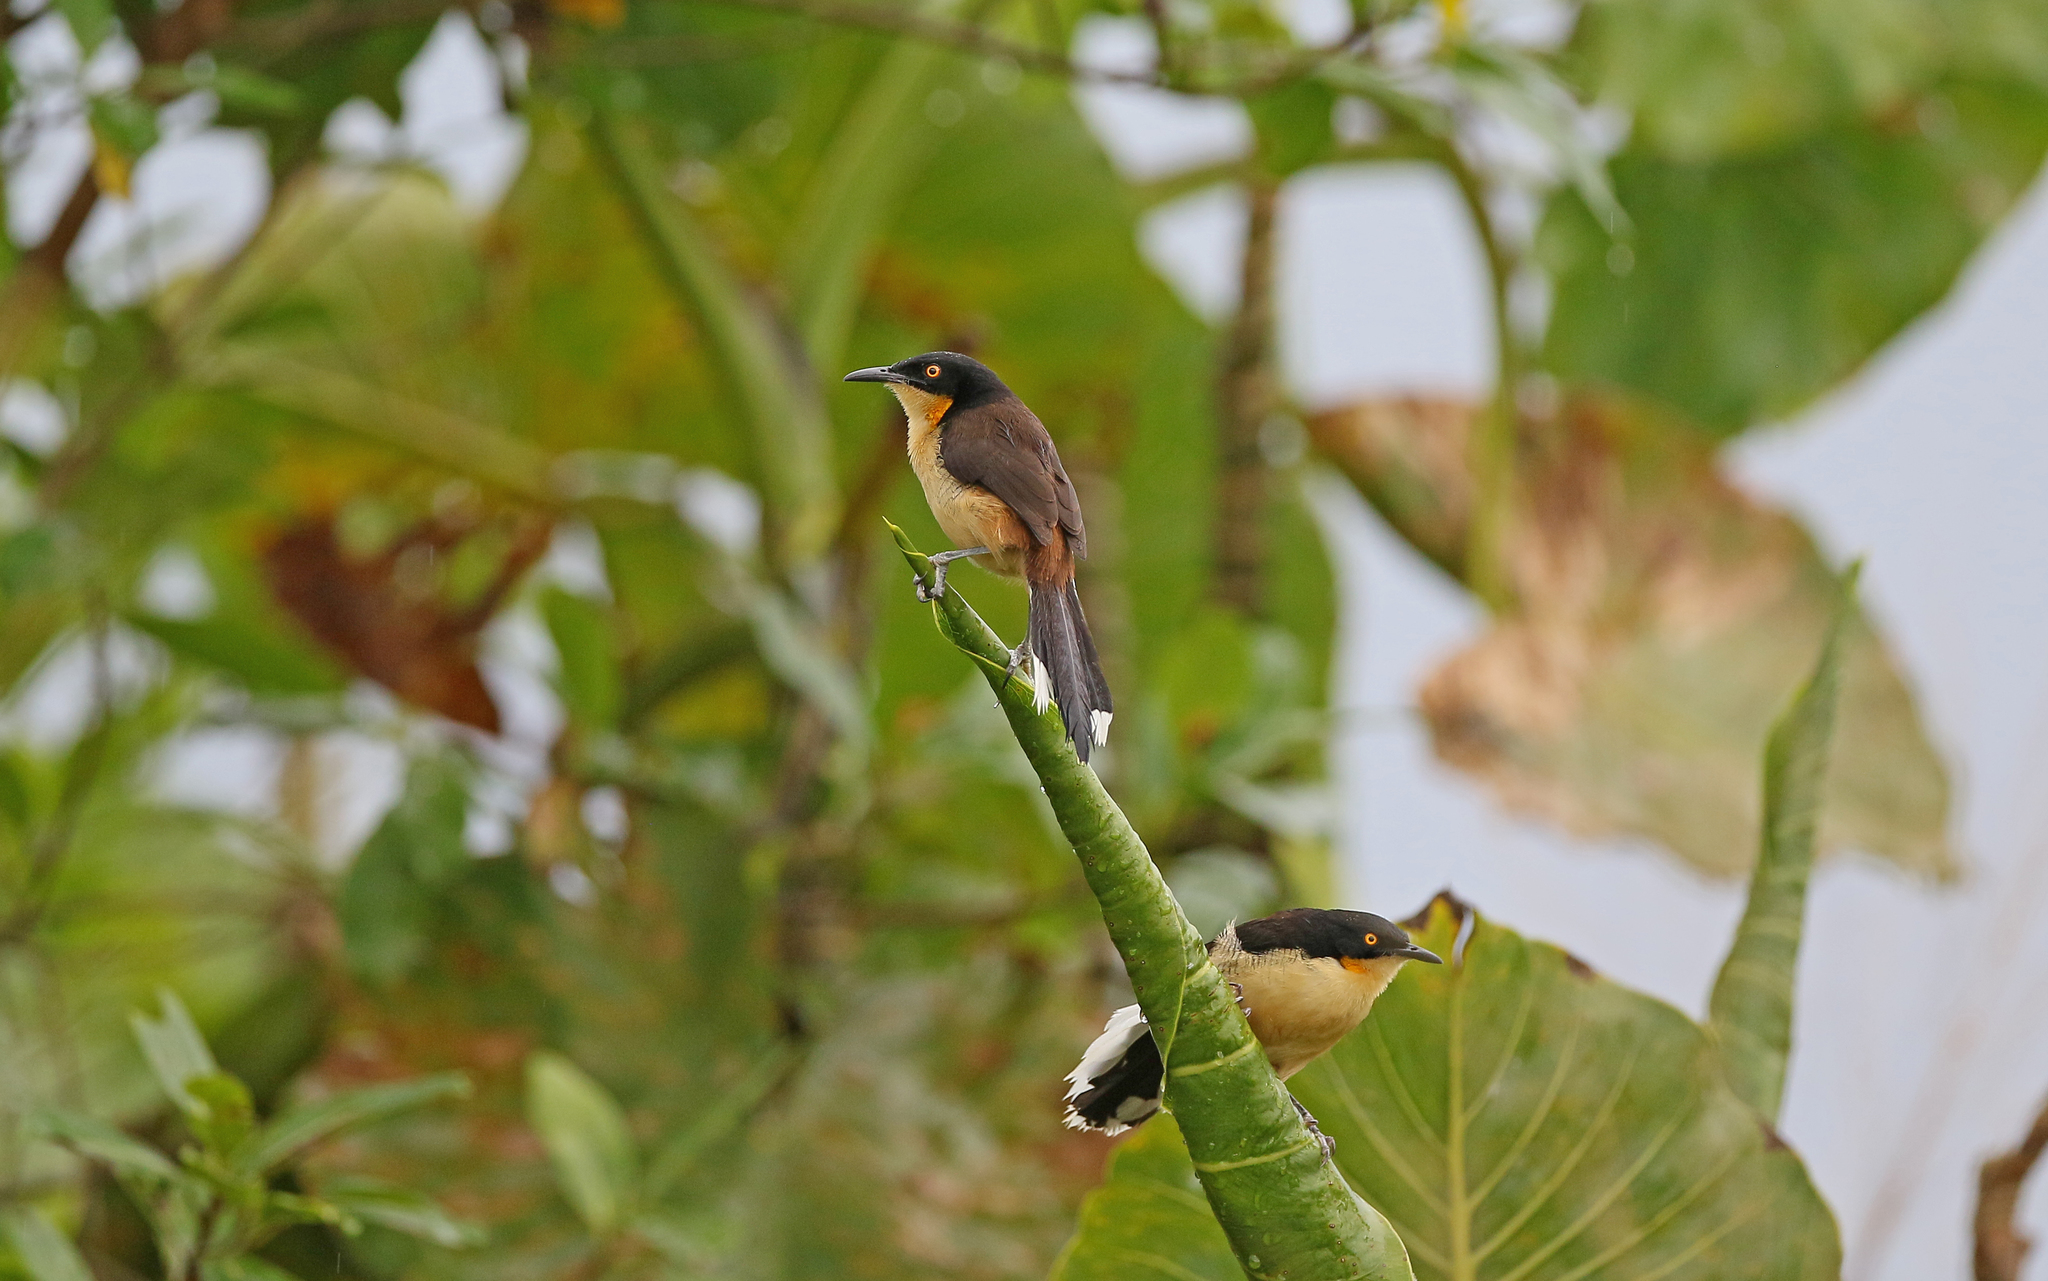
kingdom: Animalia
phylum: Chordata
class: Aves
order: Passeriformes
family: Donacobiidae
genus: Donacobius
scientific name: Donacobius atricapilla
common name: Black-capped donacobius
